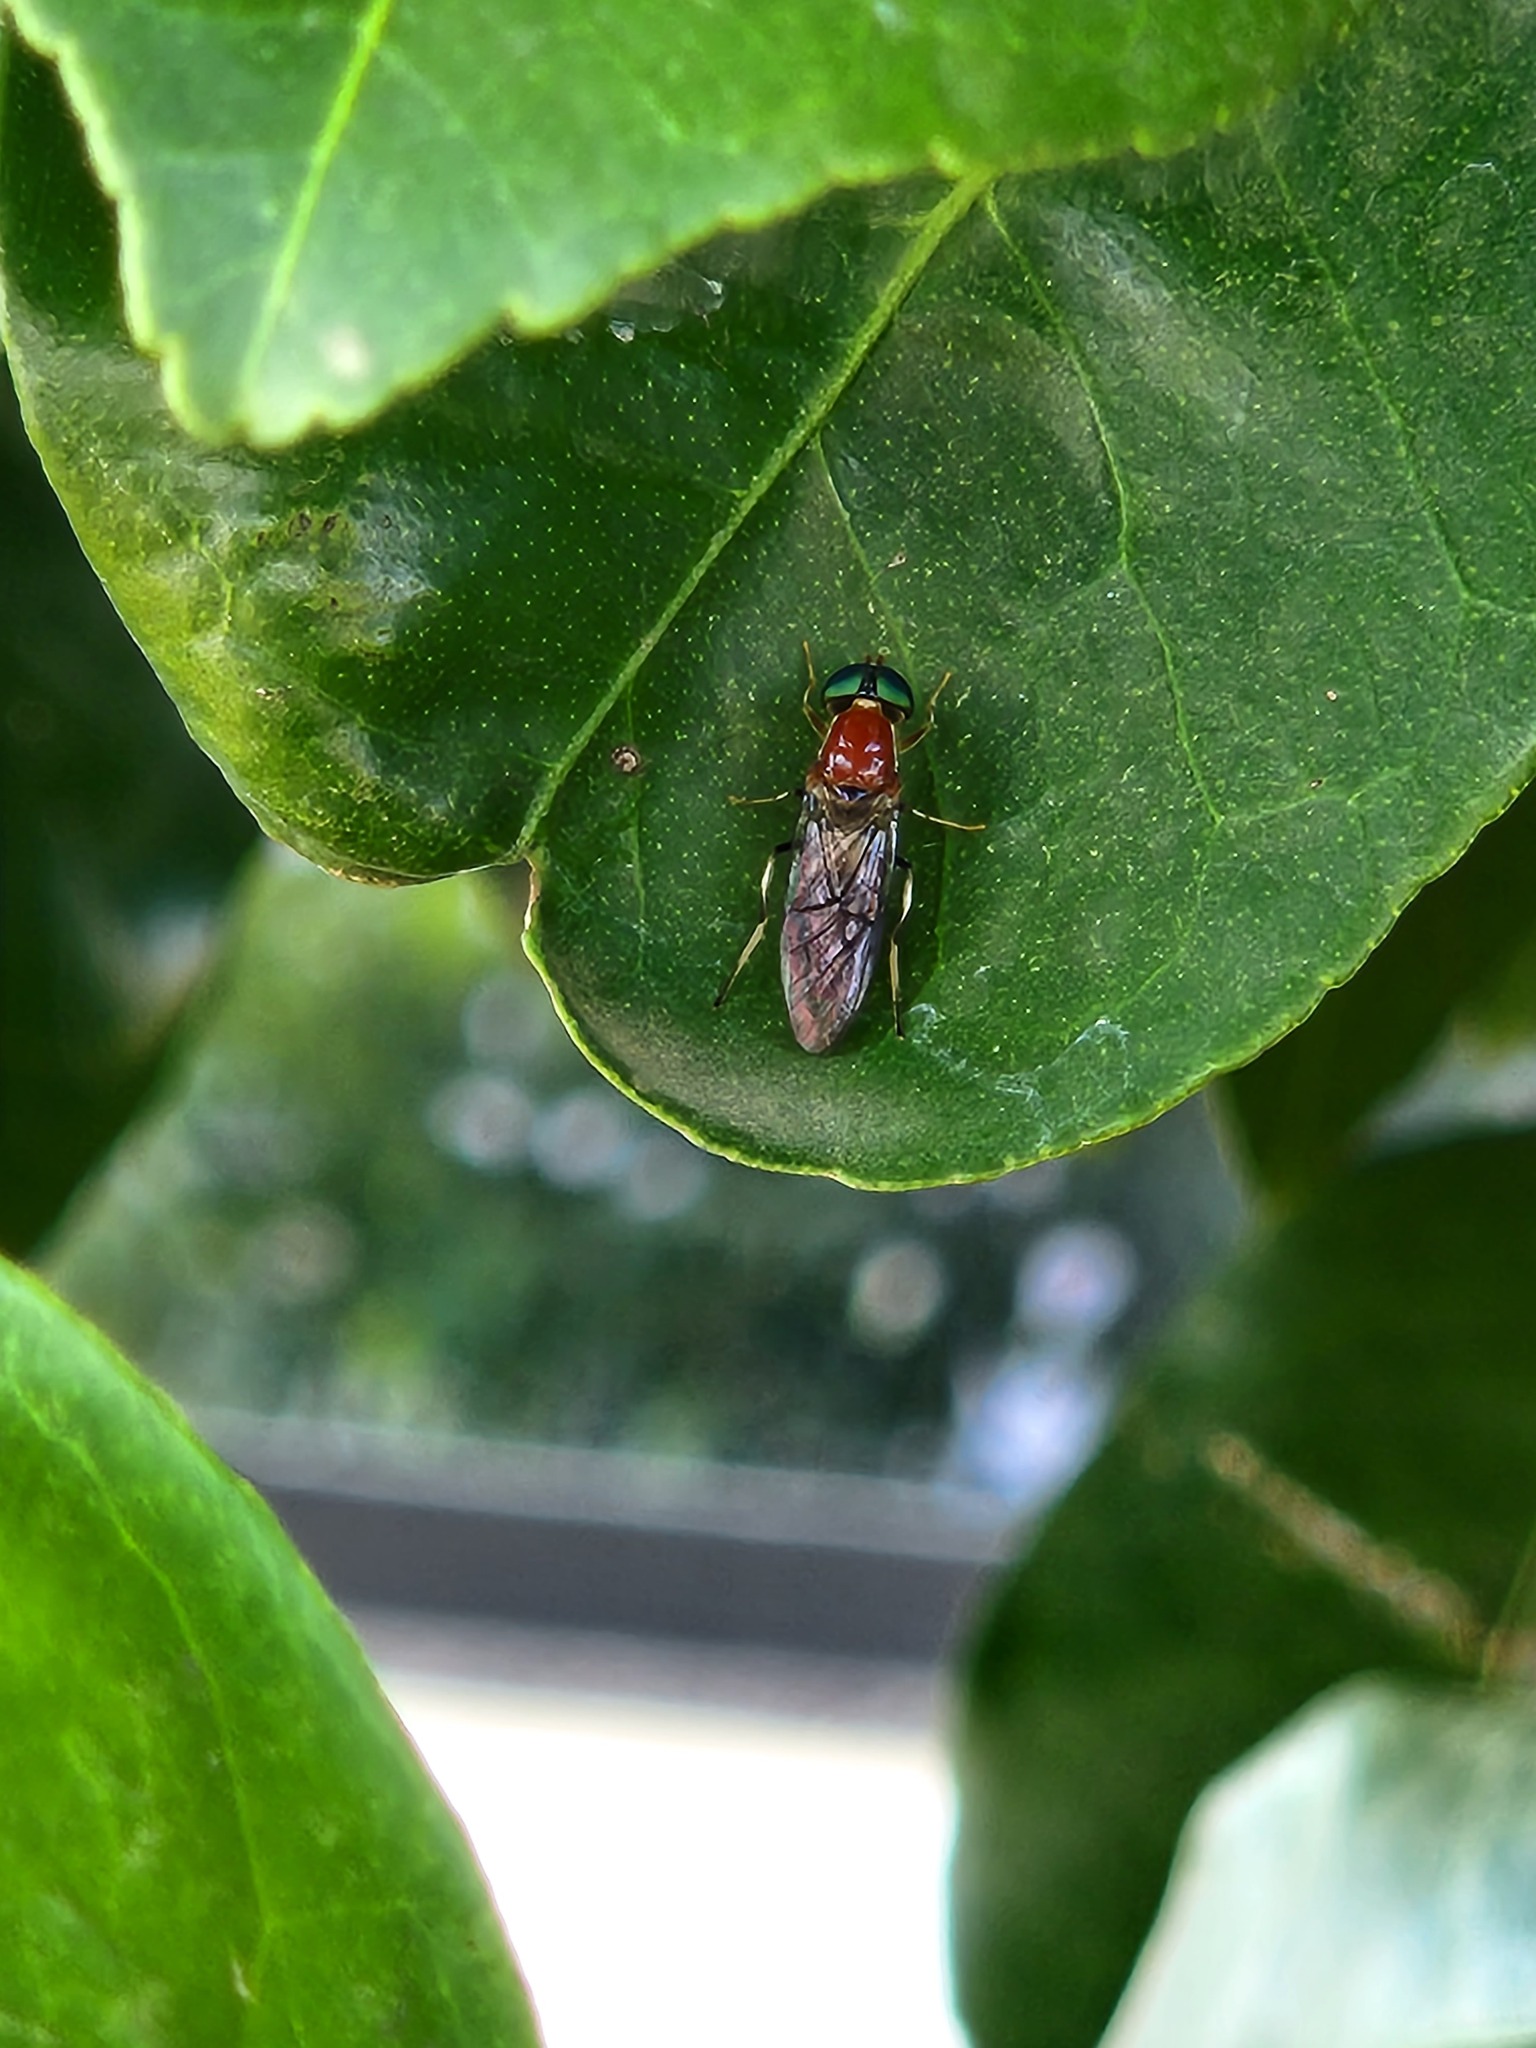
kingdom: Animalia
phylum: Arthropoda
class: Insecta
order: Diptera
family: Stratiomyidae
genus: Sargus
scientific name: Sargus thoracicus
